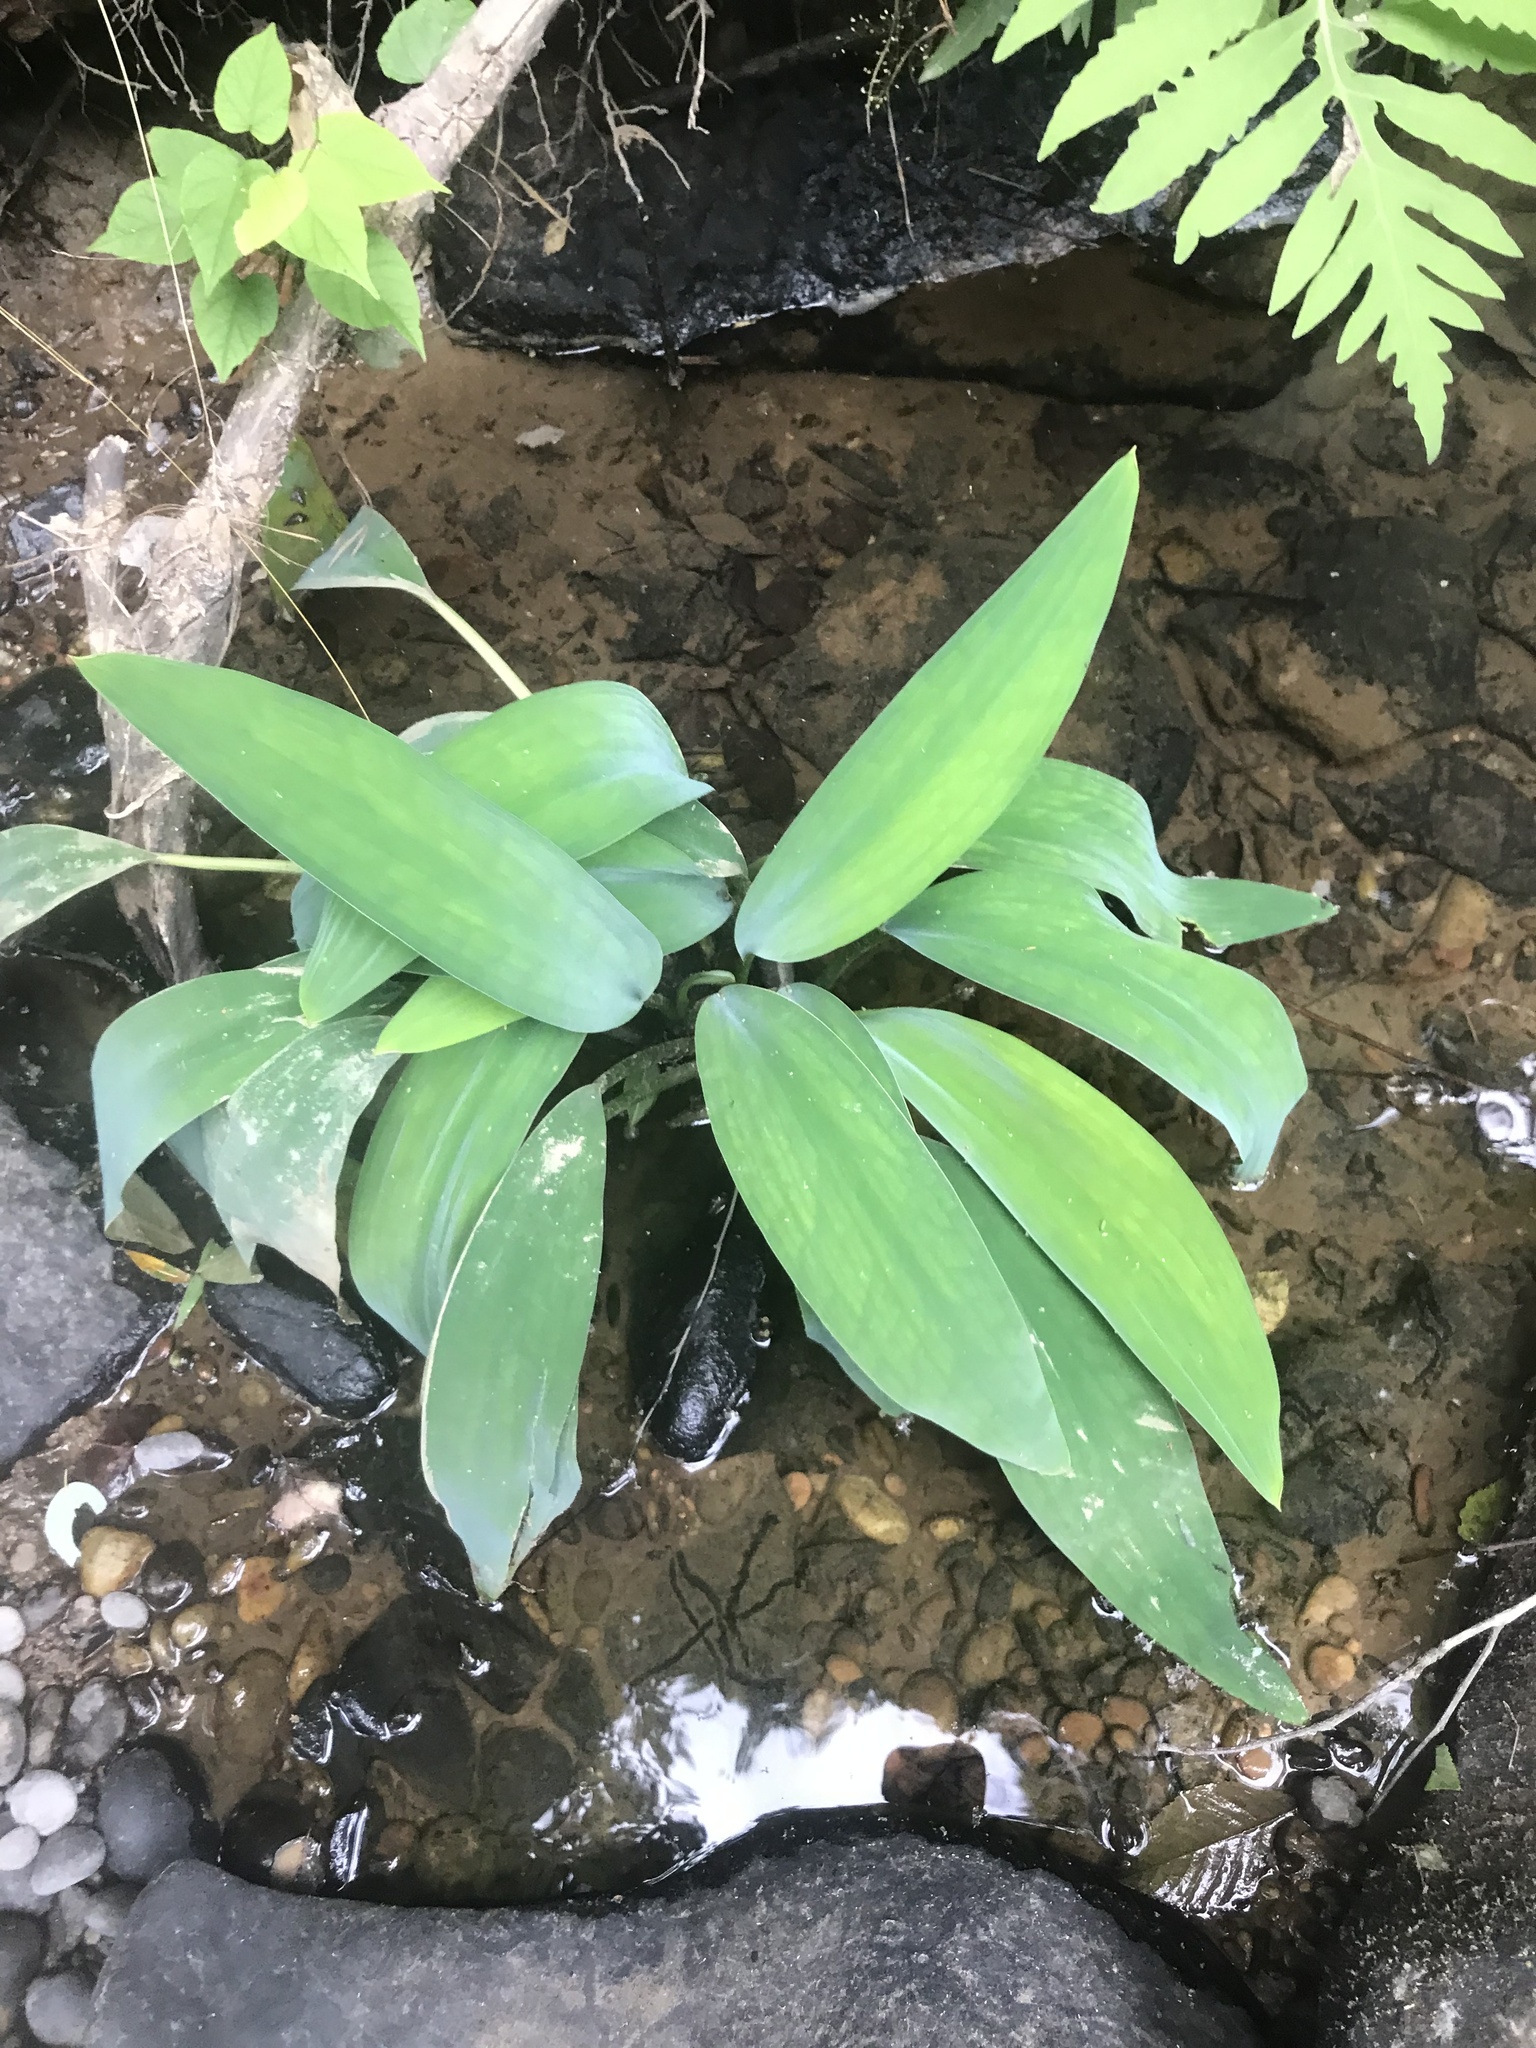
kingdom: Plantae
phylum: Tracheophyta
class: Liliopsida
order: Alismatales
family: Araceae
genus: Orontium
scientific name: Orontium aquaticum
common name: Golden-club
